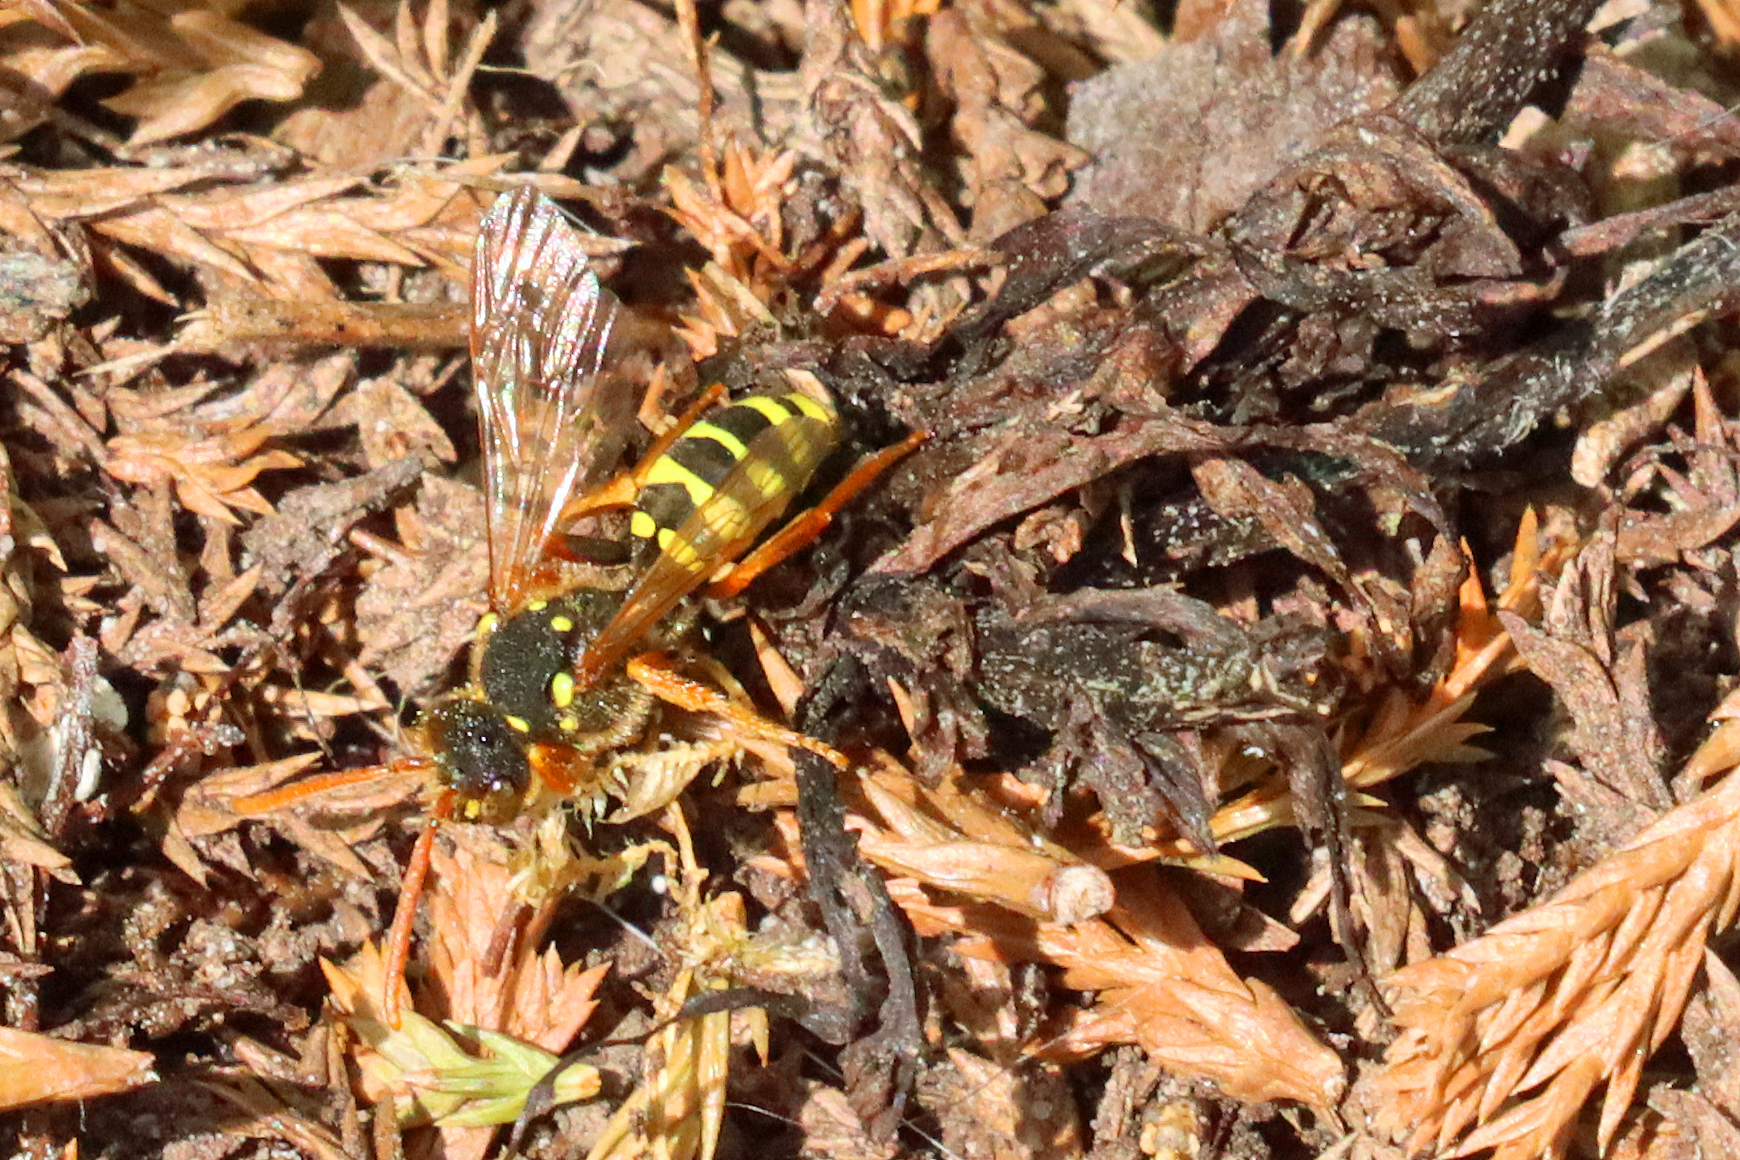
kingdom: Animalia
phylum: Arthropoda
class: Insecta
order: Hymenoptera
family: Apidae
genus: Nomada
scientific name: Nomada goodeniana
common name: Gooden's nomad bee
